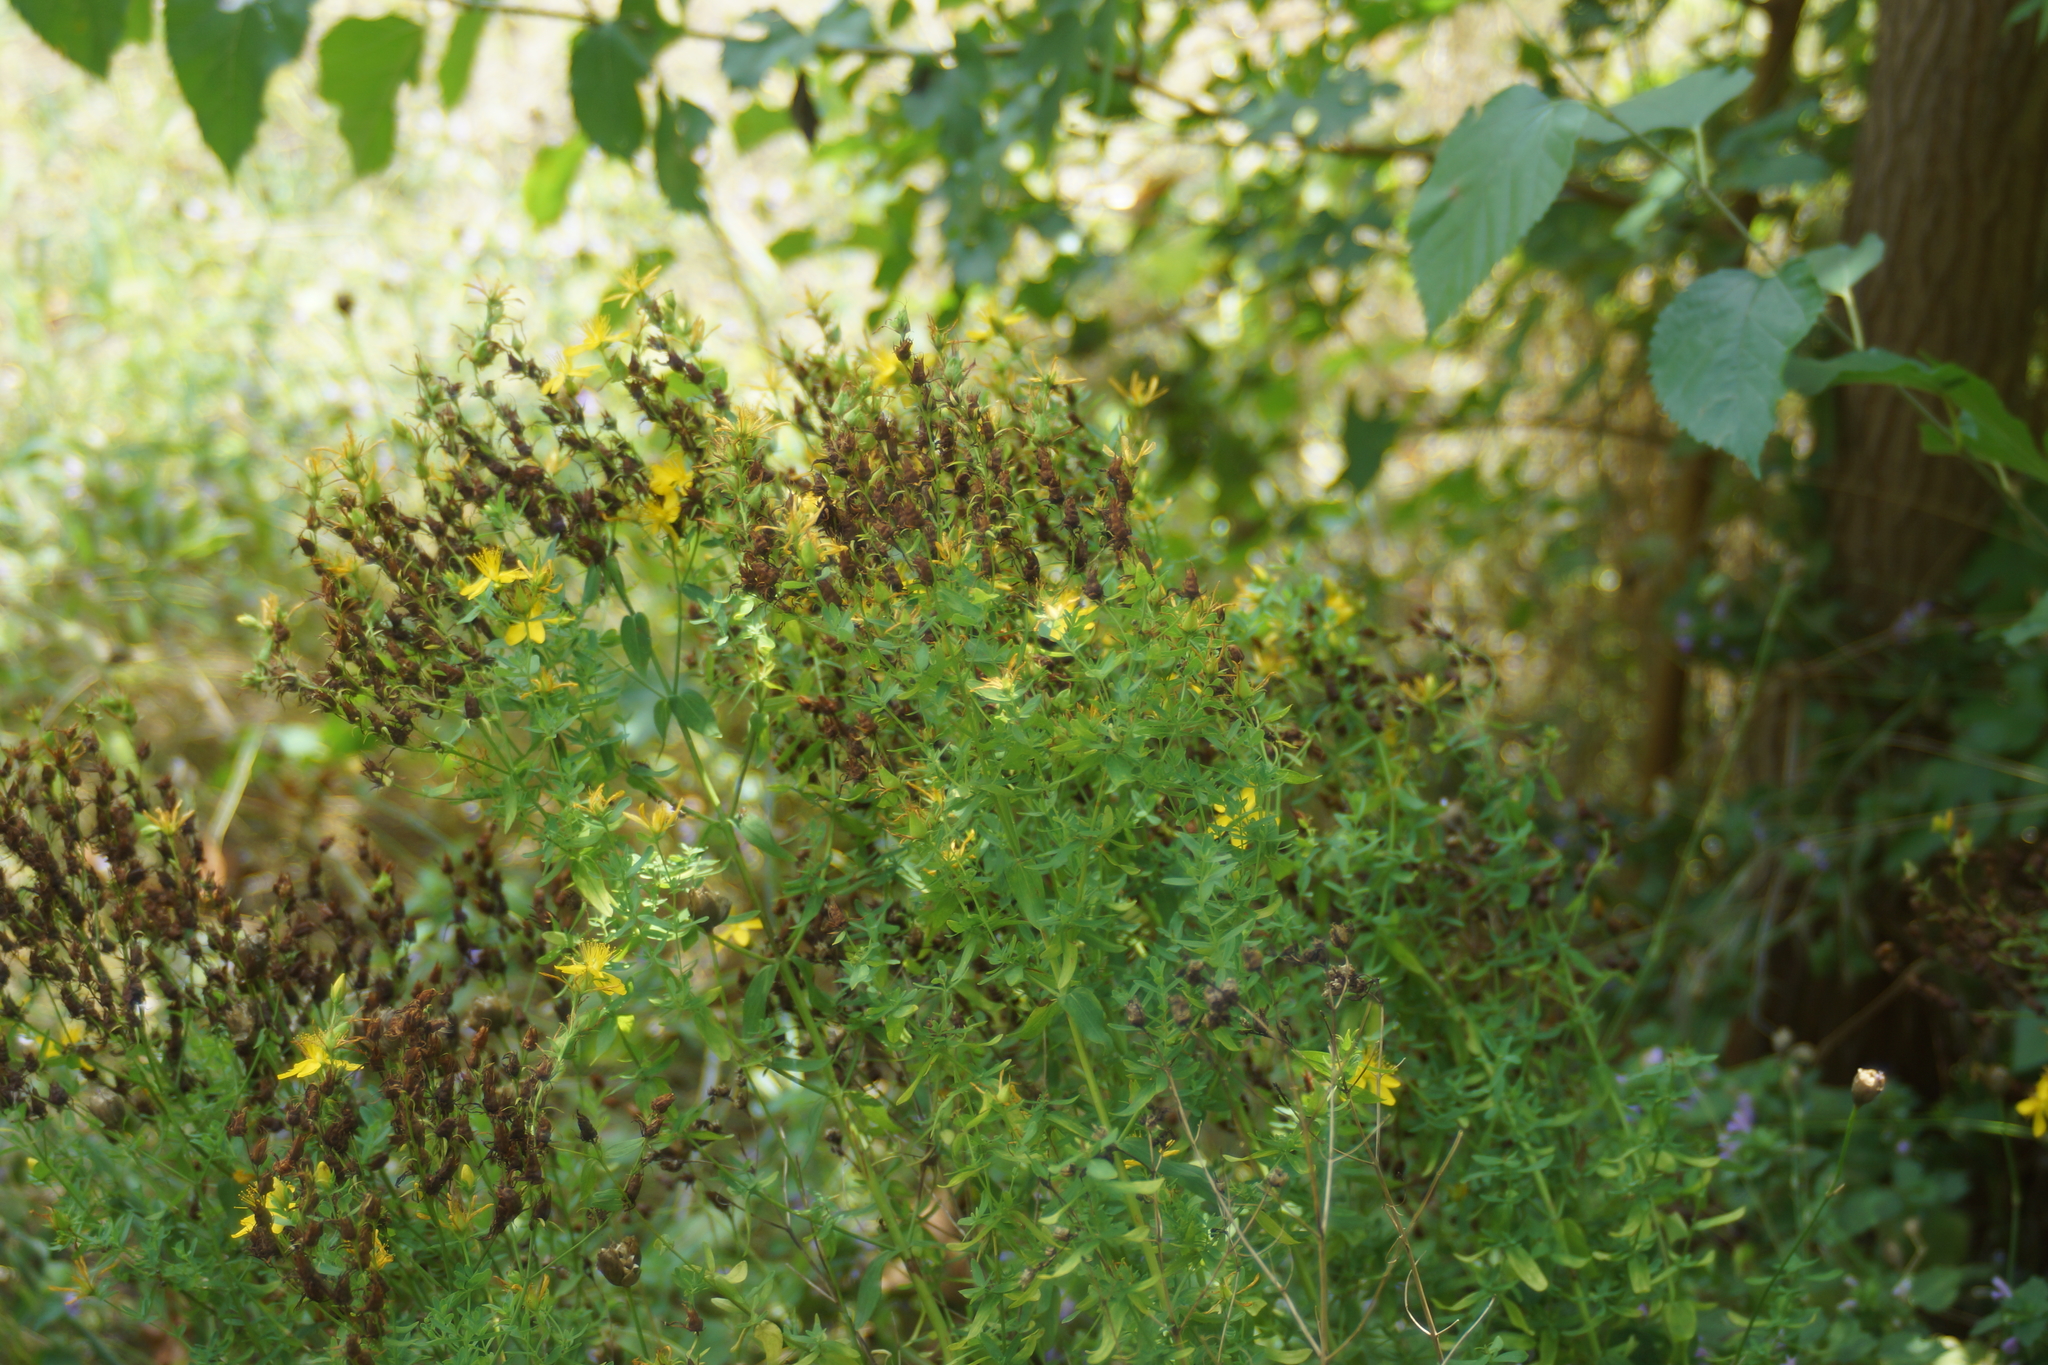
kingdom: Plantae
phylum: Tracheophyta
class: Magnoliopsida
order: Malpighiales
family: Hypericaceae
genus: Hypericum
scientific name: Hypericum perforatum
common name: Common st. johnswort
